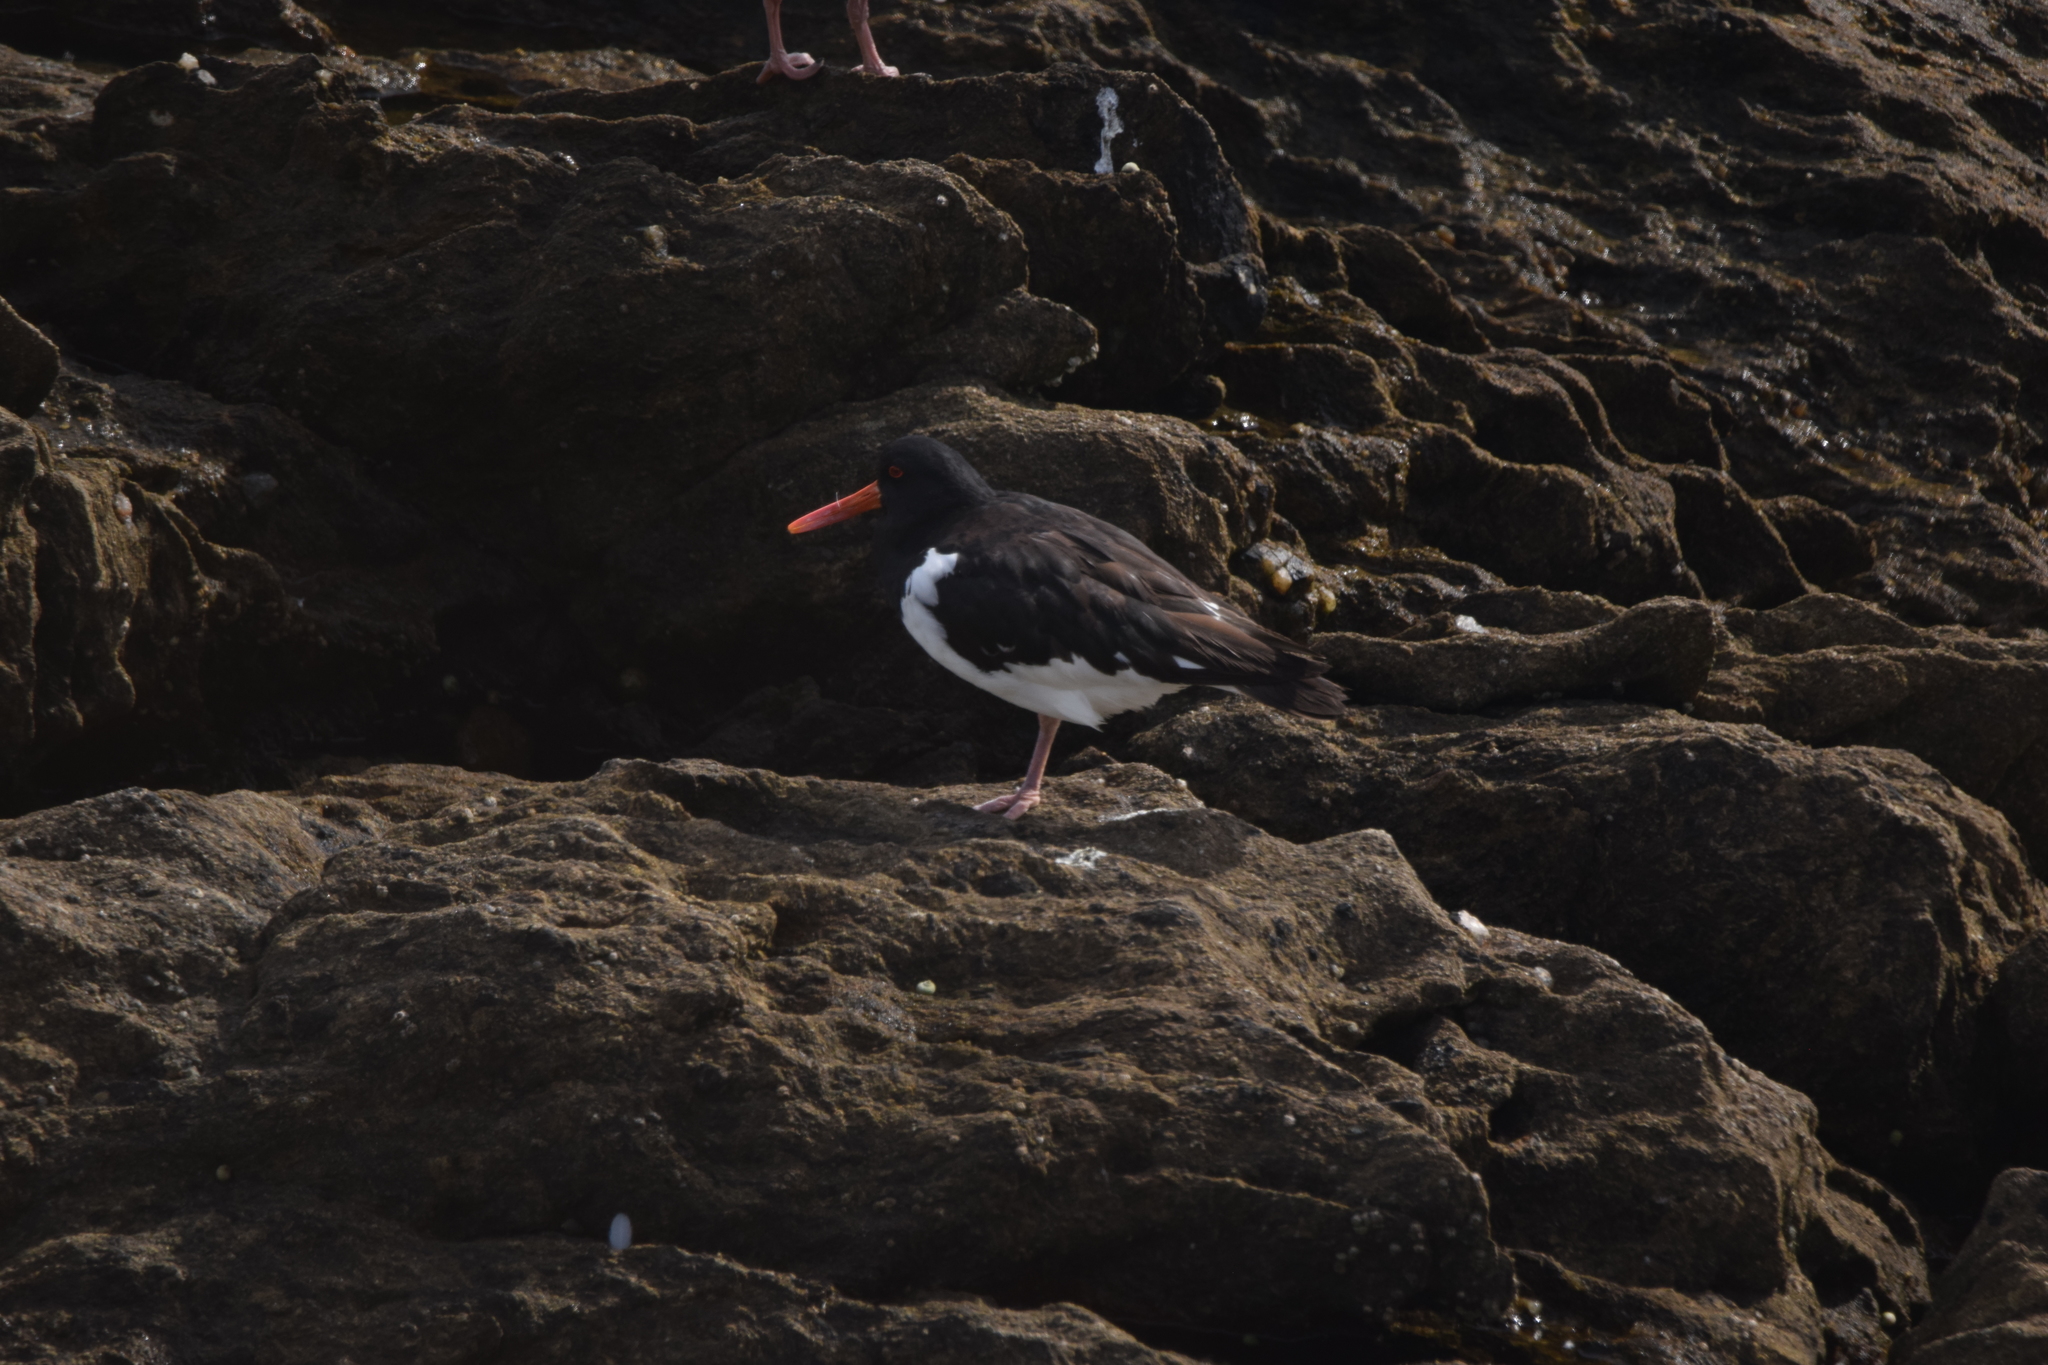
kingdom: Animalia
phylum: Chordata
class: Aves
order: Charadriiformes
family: Haematopodidae
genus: Haematopus
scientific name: Haematopus ostralegus
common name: Eurasian oystercatcher
